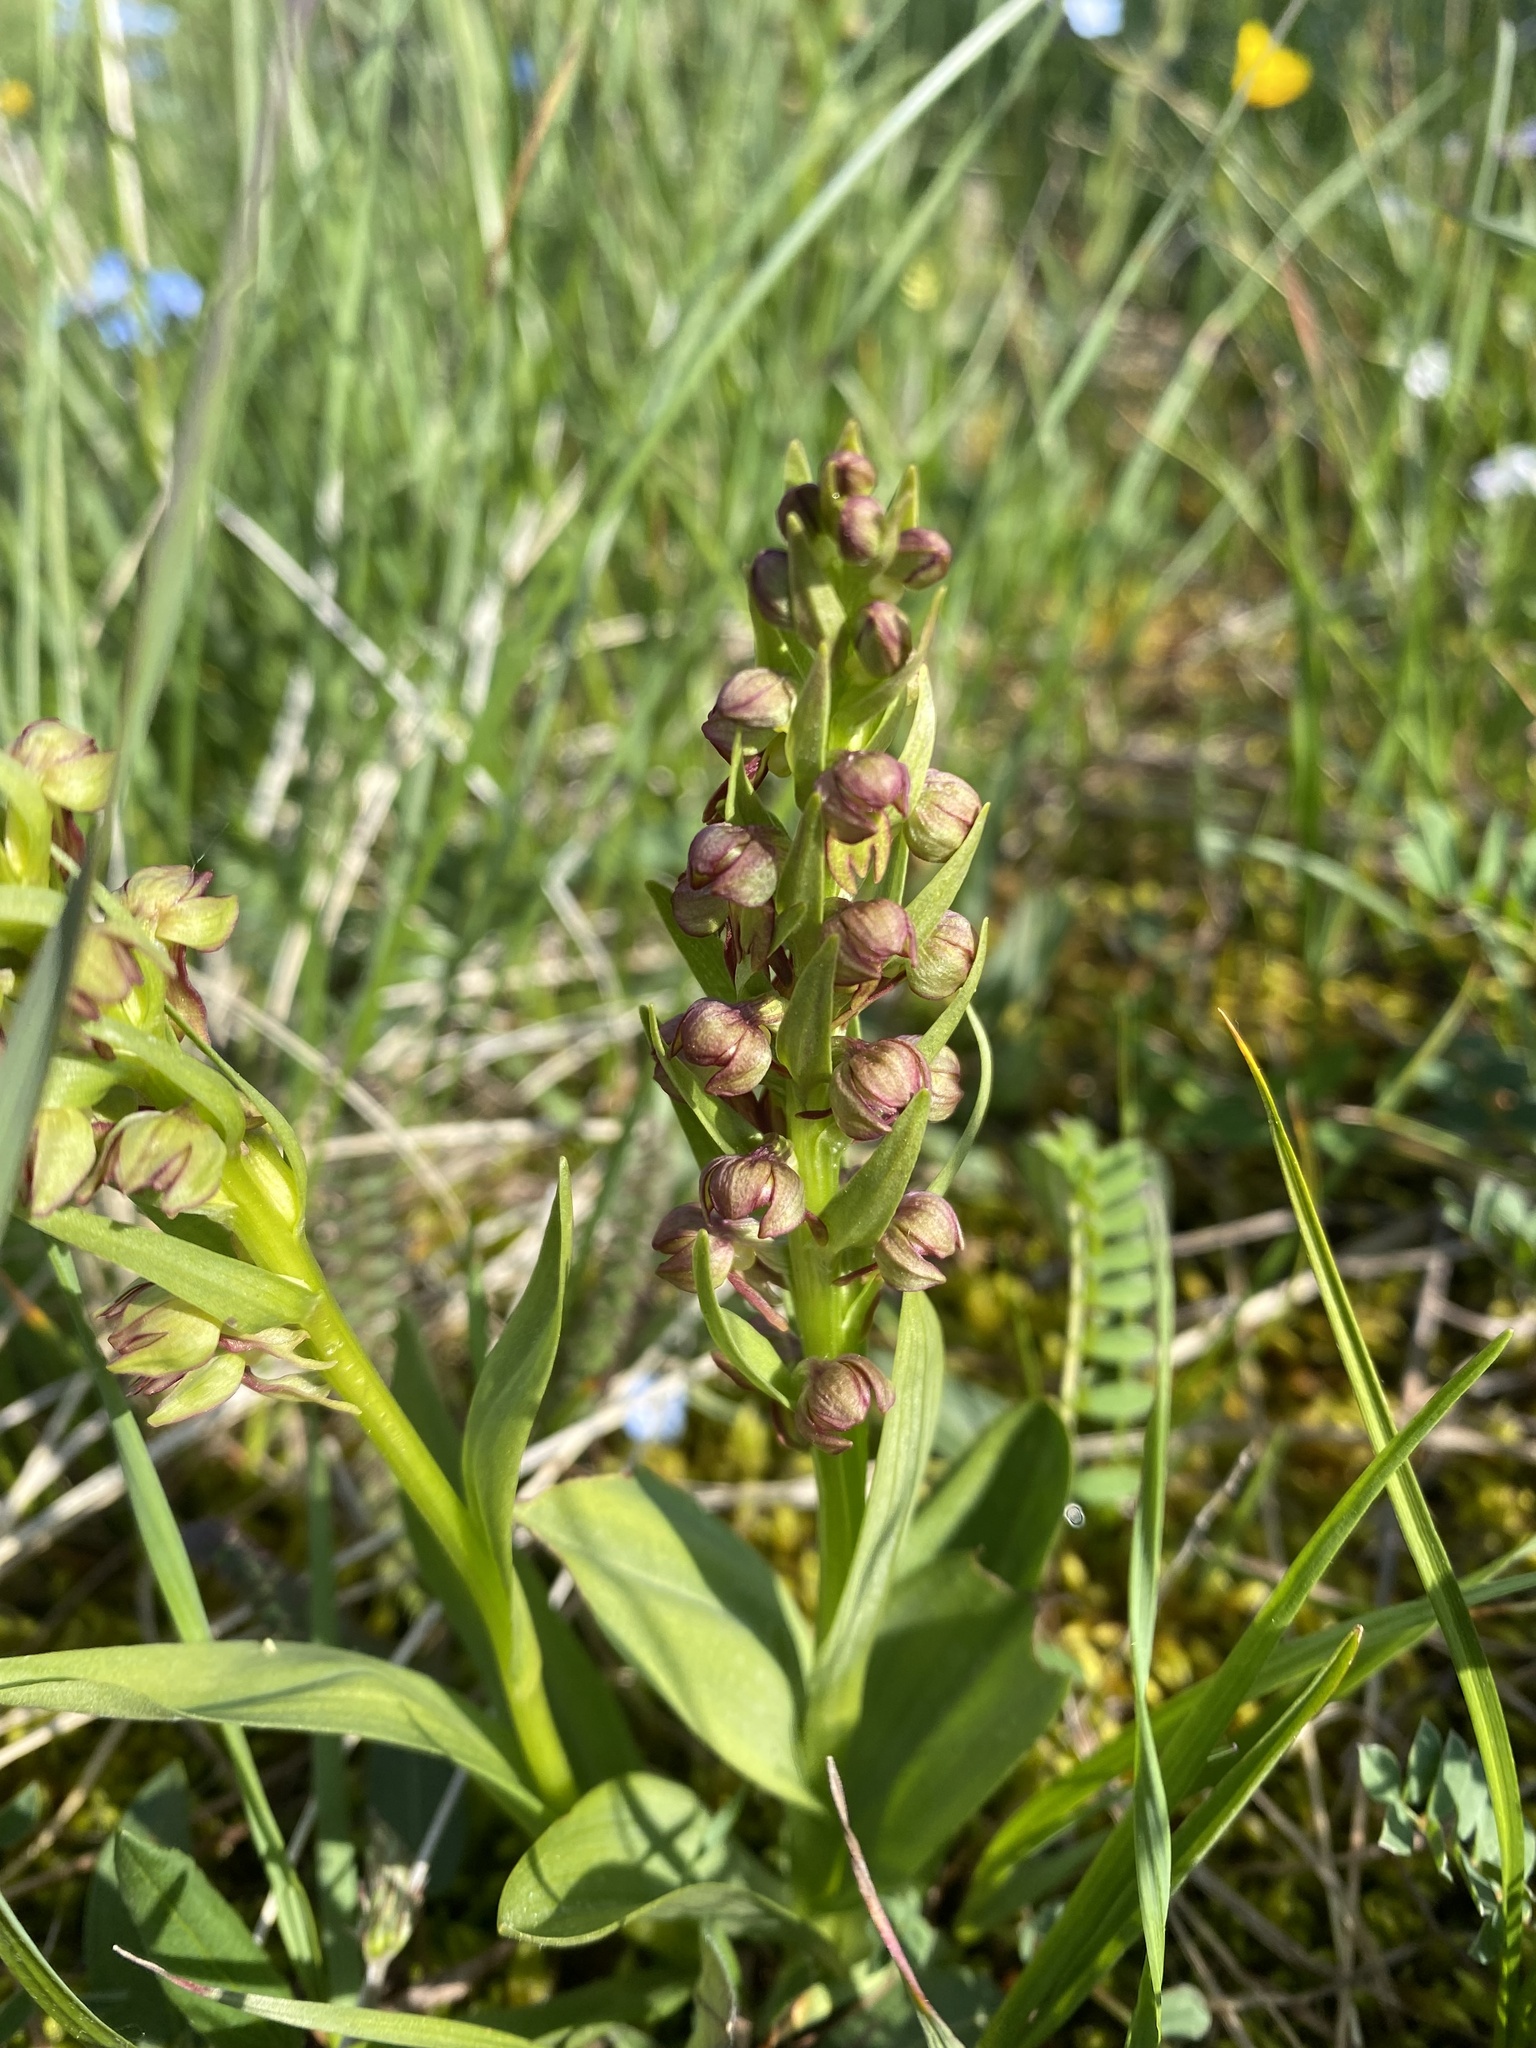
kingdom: Plantae
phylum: Tracheophyta
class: Liliopsida
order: Asparagales
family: Orchidaceae
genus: Dactylorhiza
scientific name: Dactylorhiza viridis
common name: Longbract frog orchid
